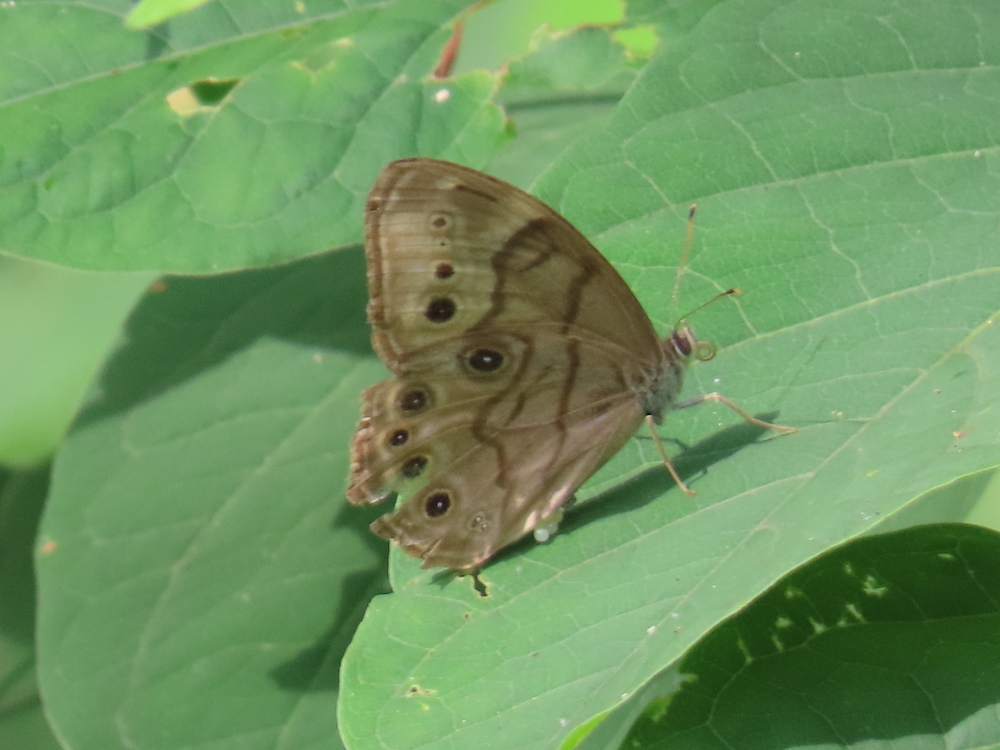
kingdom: Animalia
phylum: Arthropoda
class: Insecta
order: Lepidoptera
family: Nymphalidae
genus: Lethe
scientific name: Lethe anthedon
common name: Northern pearly-eye
